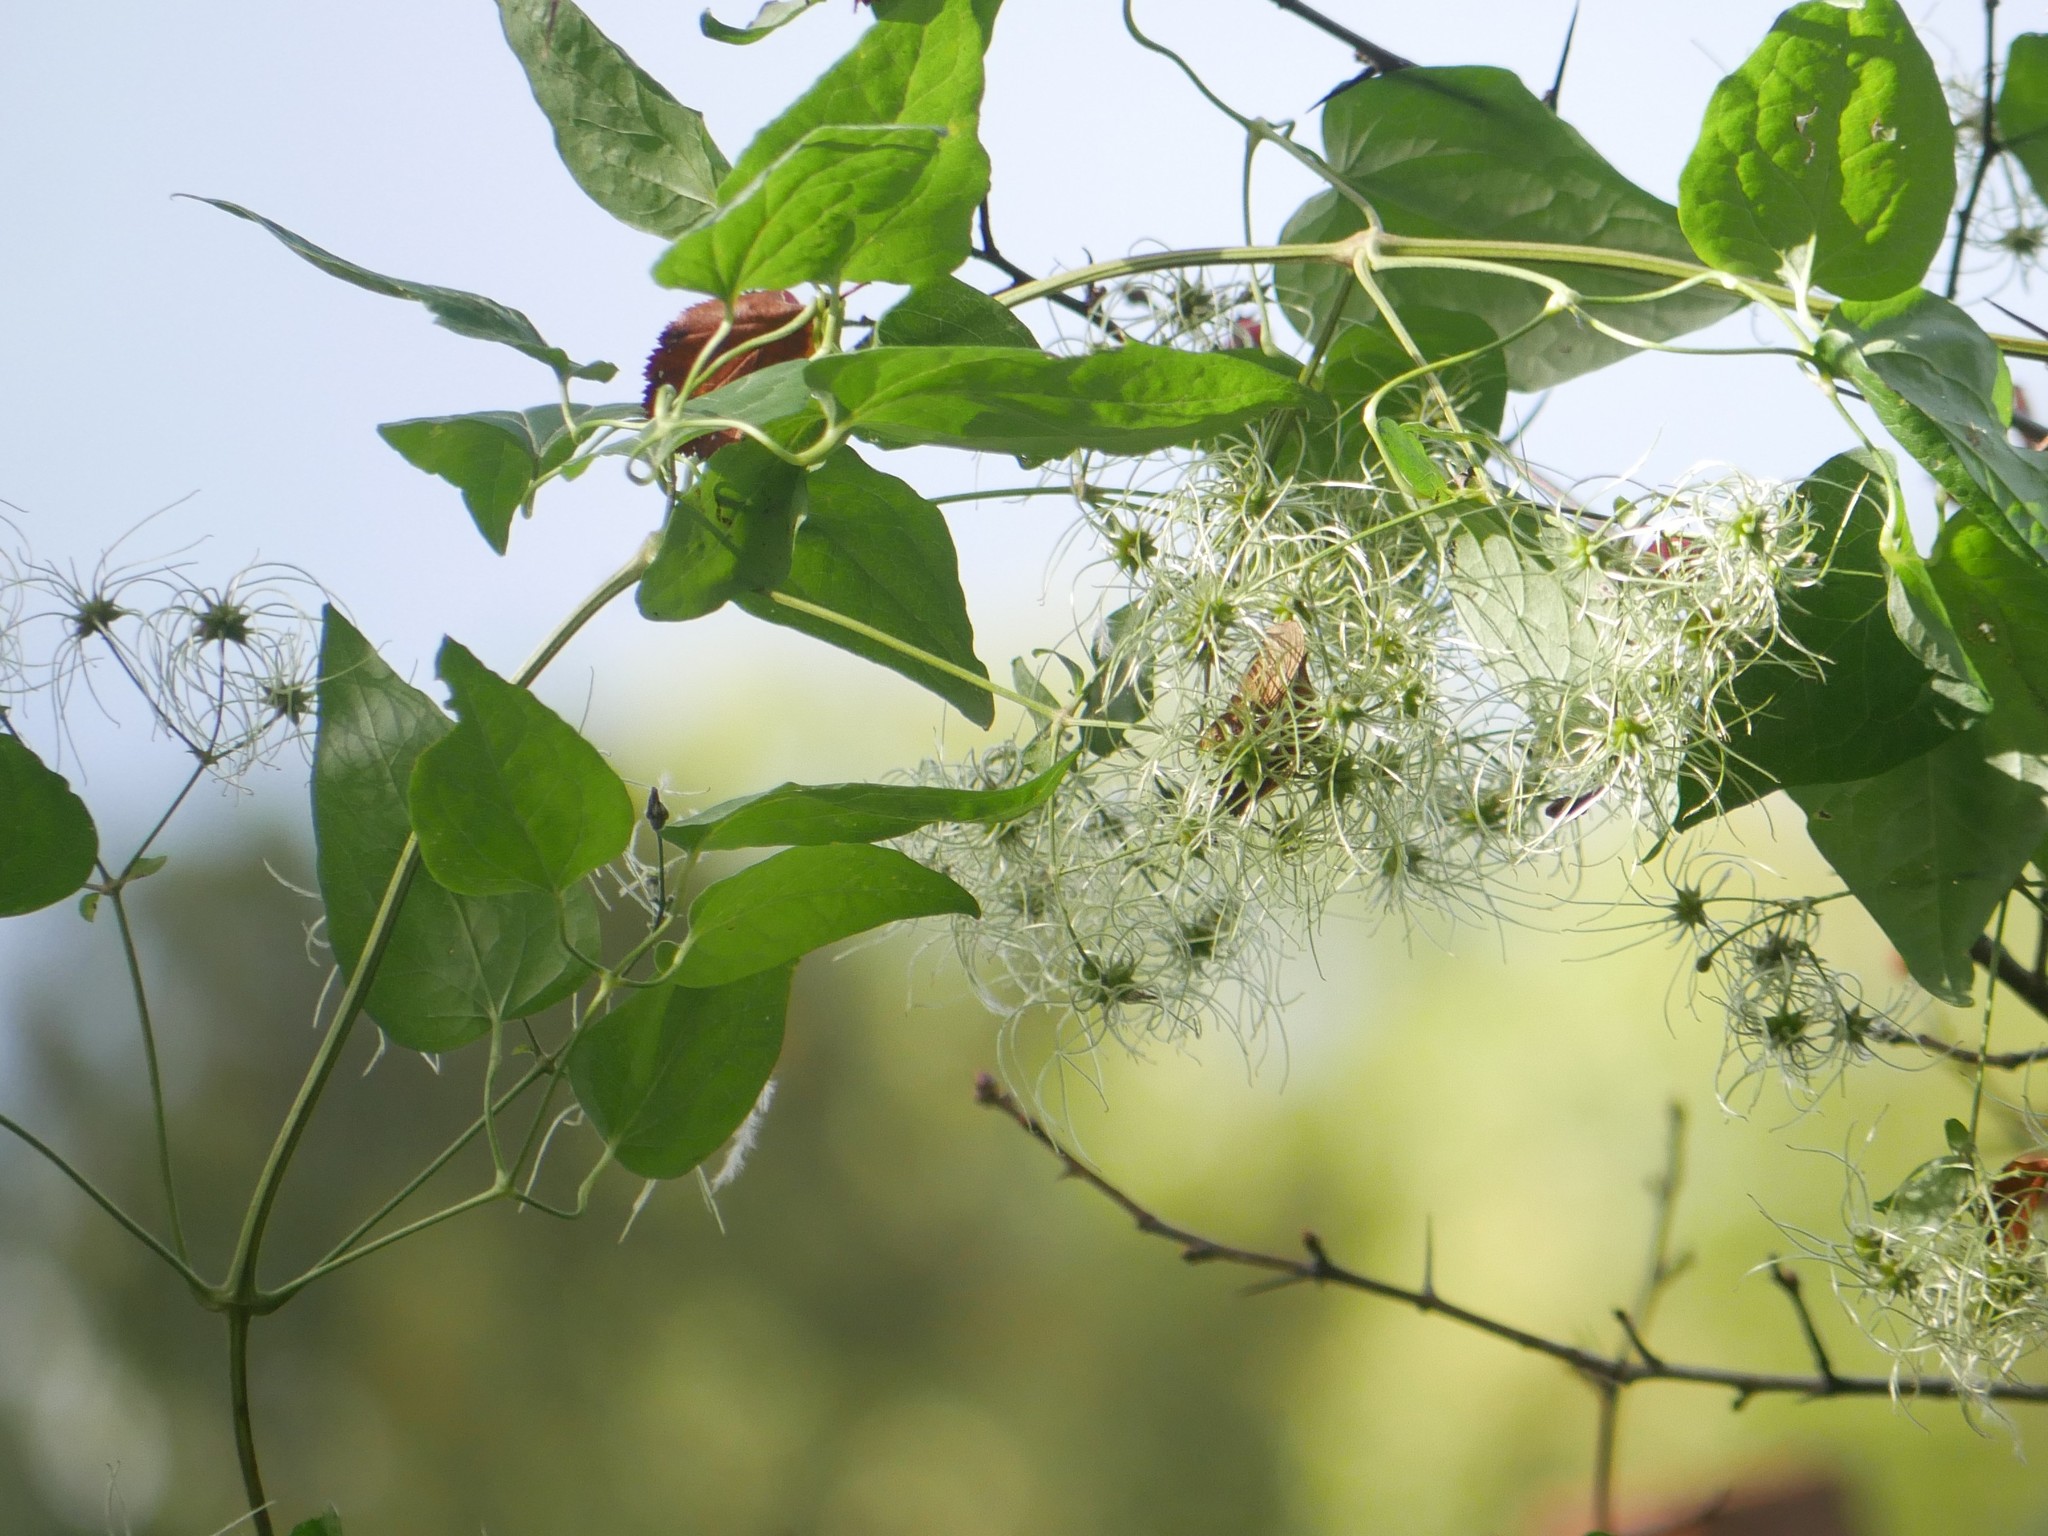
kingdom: Plantae
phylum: Tracheophyta
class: Magnoliopsida
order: Ranunculales
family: Ranunculaceae
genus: Clematis
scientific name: Clematis vitalba
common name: Evergreen clematis
